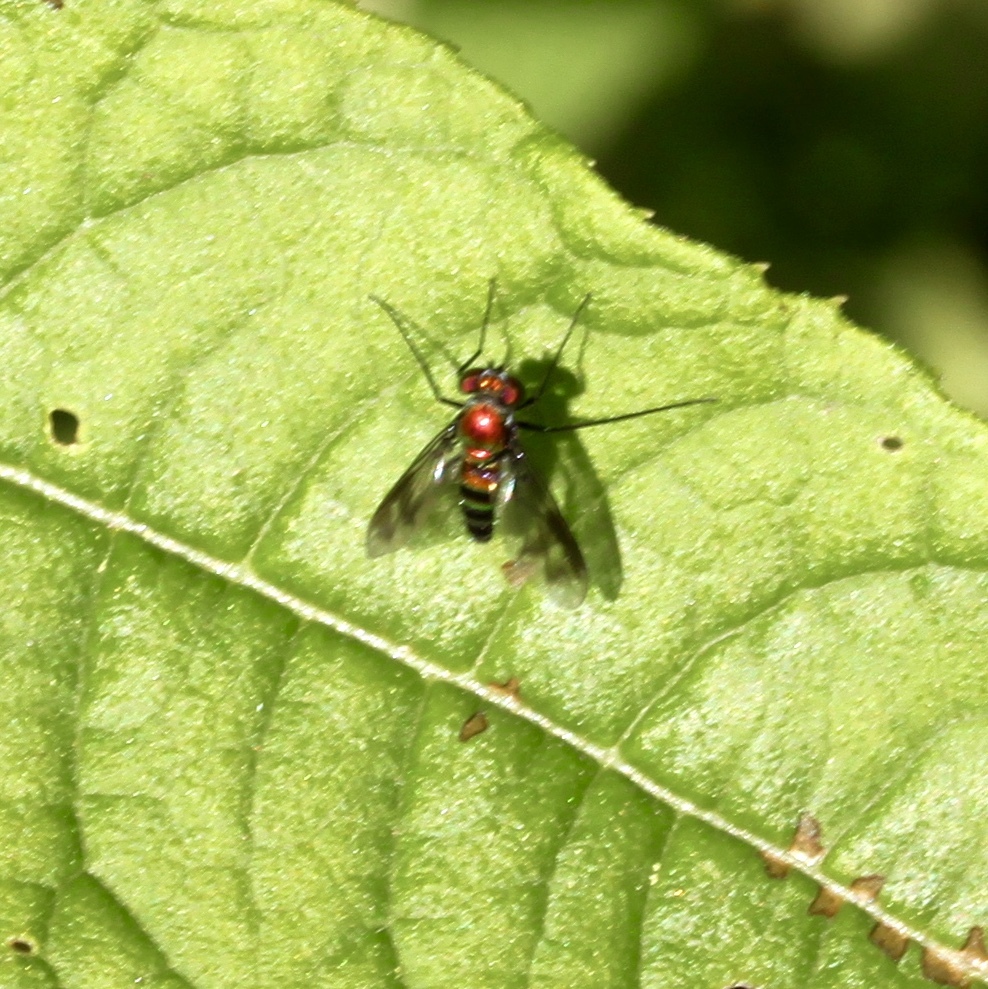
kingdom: Animalia
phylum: Arthropoda
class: Insecta
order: Diptera
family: Dolichopodidae
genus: Condylostylus
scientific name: Condylostylus patibulatus
